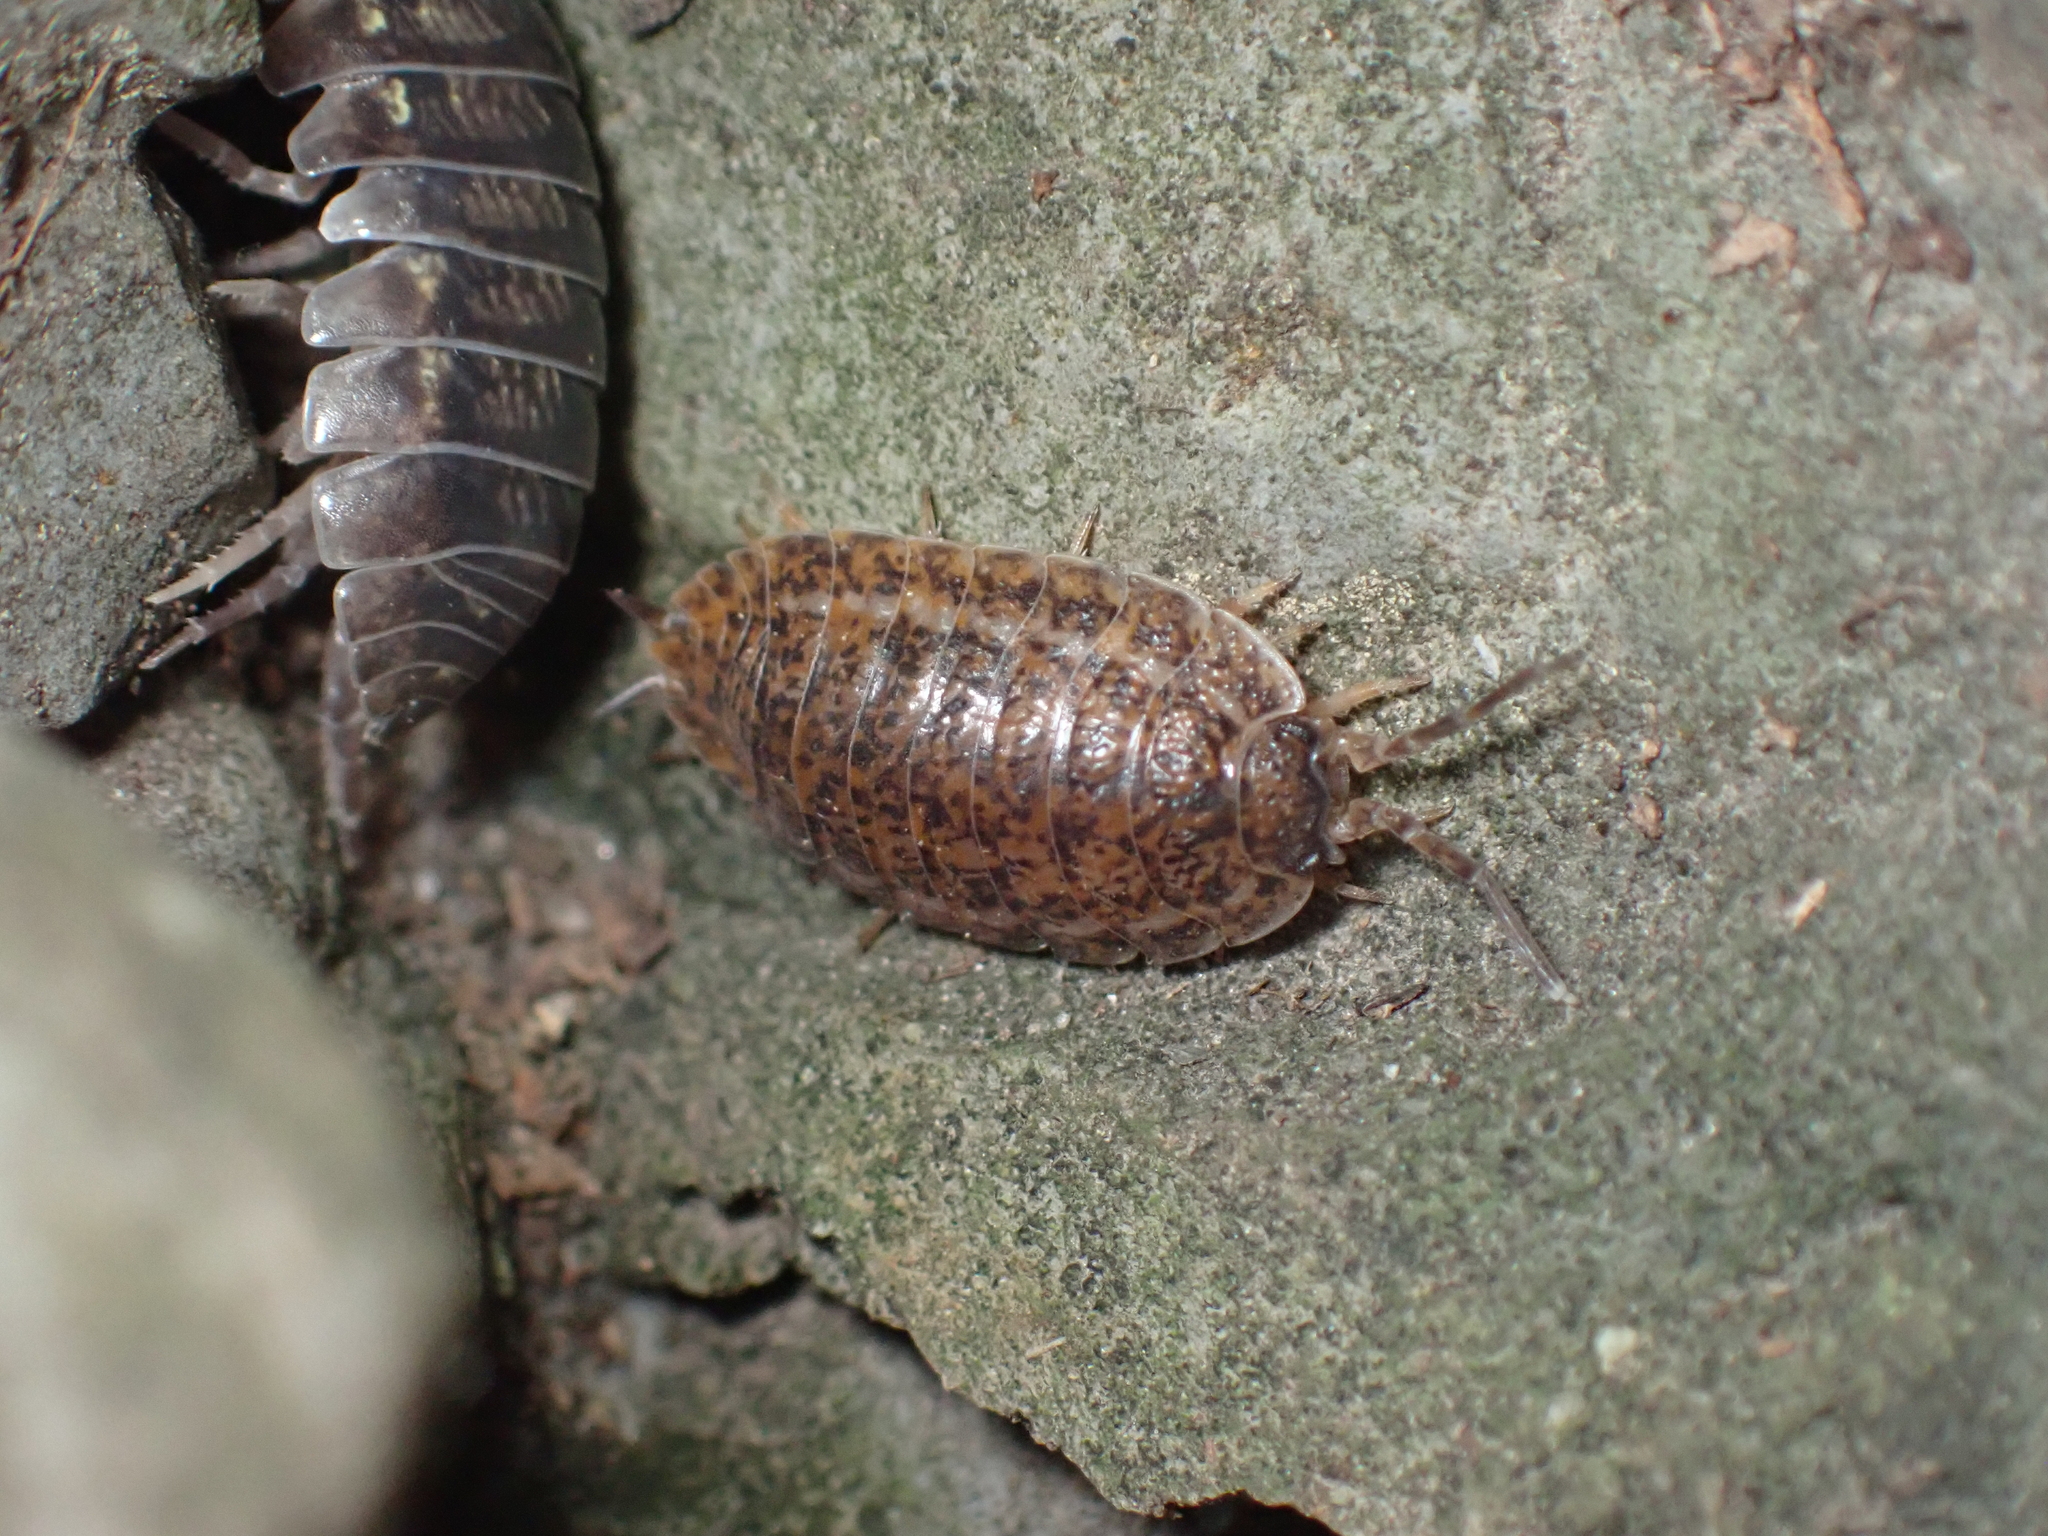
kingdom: Animalia
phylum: Arthropoda
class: Malacostraca
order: Isopoda
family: Trachelipodidae
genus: Trachelipus
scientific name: Trachelipus rathkii
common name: Isopod
